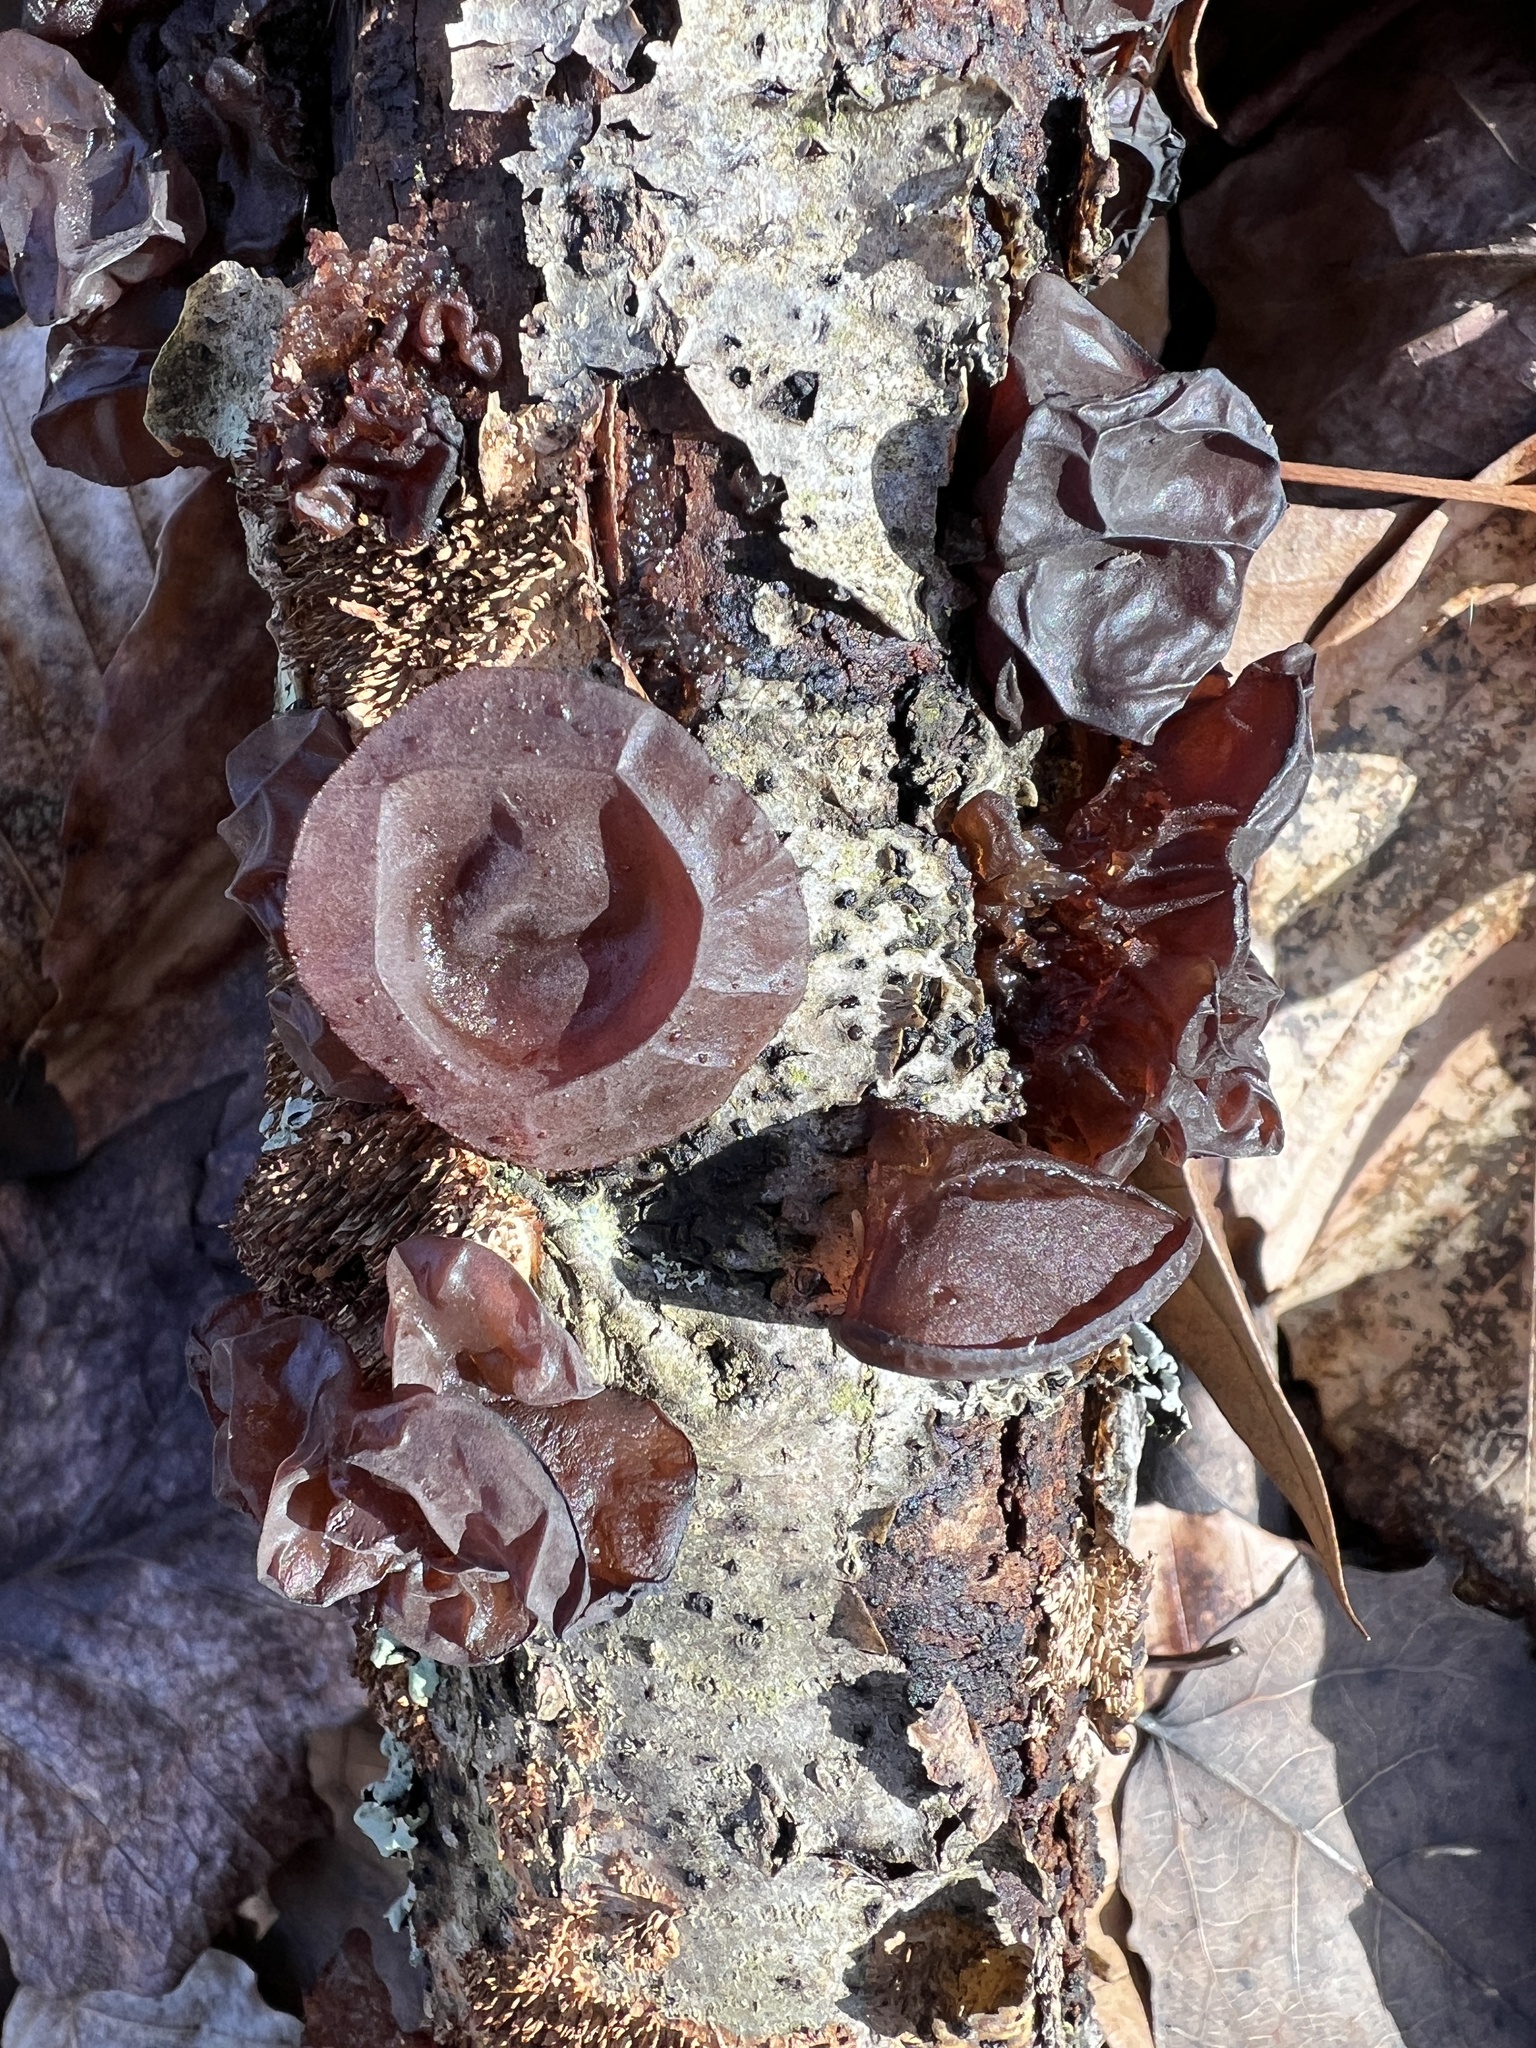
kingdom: Fungi
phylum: Basidiomycota
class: Agaricomycetes
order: Auriculariales
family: Auriculariaceae
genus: Exidia
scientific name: Exidia
